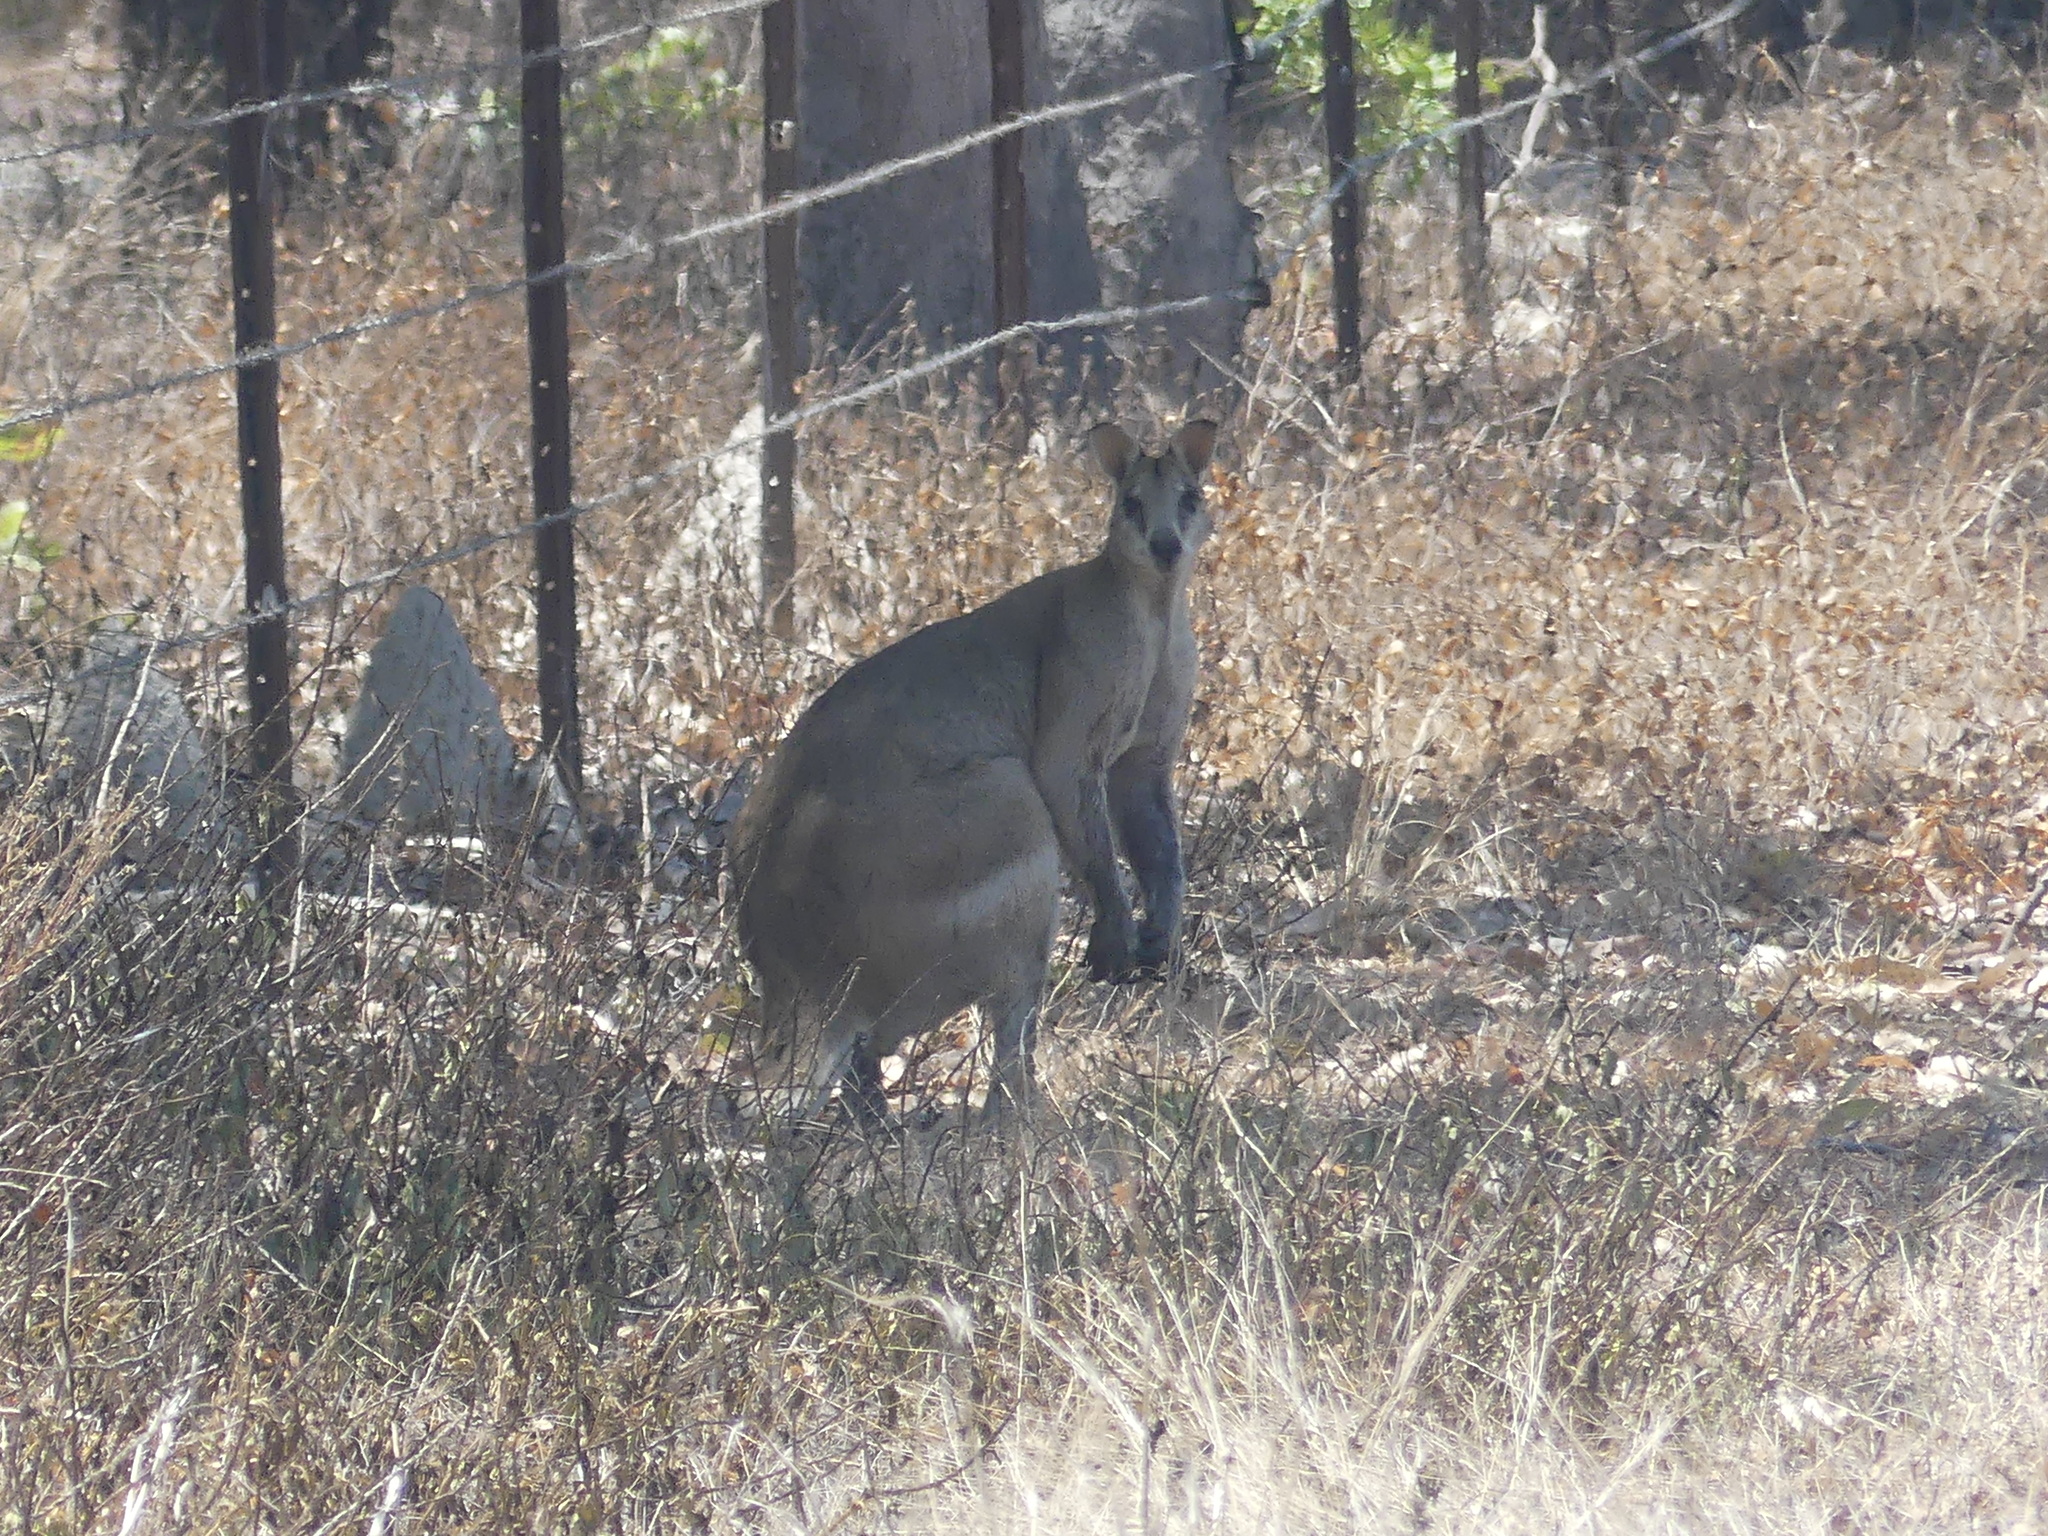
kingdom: Animalia
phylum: Chordata
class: Mammalia
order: Diprotodontia
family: Macropodidae
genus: Macropus
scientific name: Macropus agilis
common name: Agile wallaby
